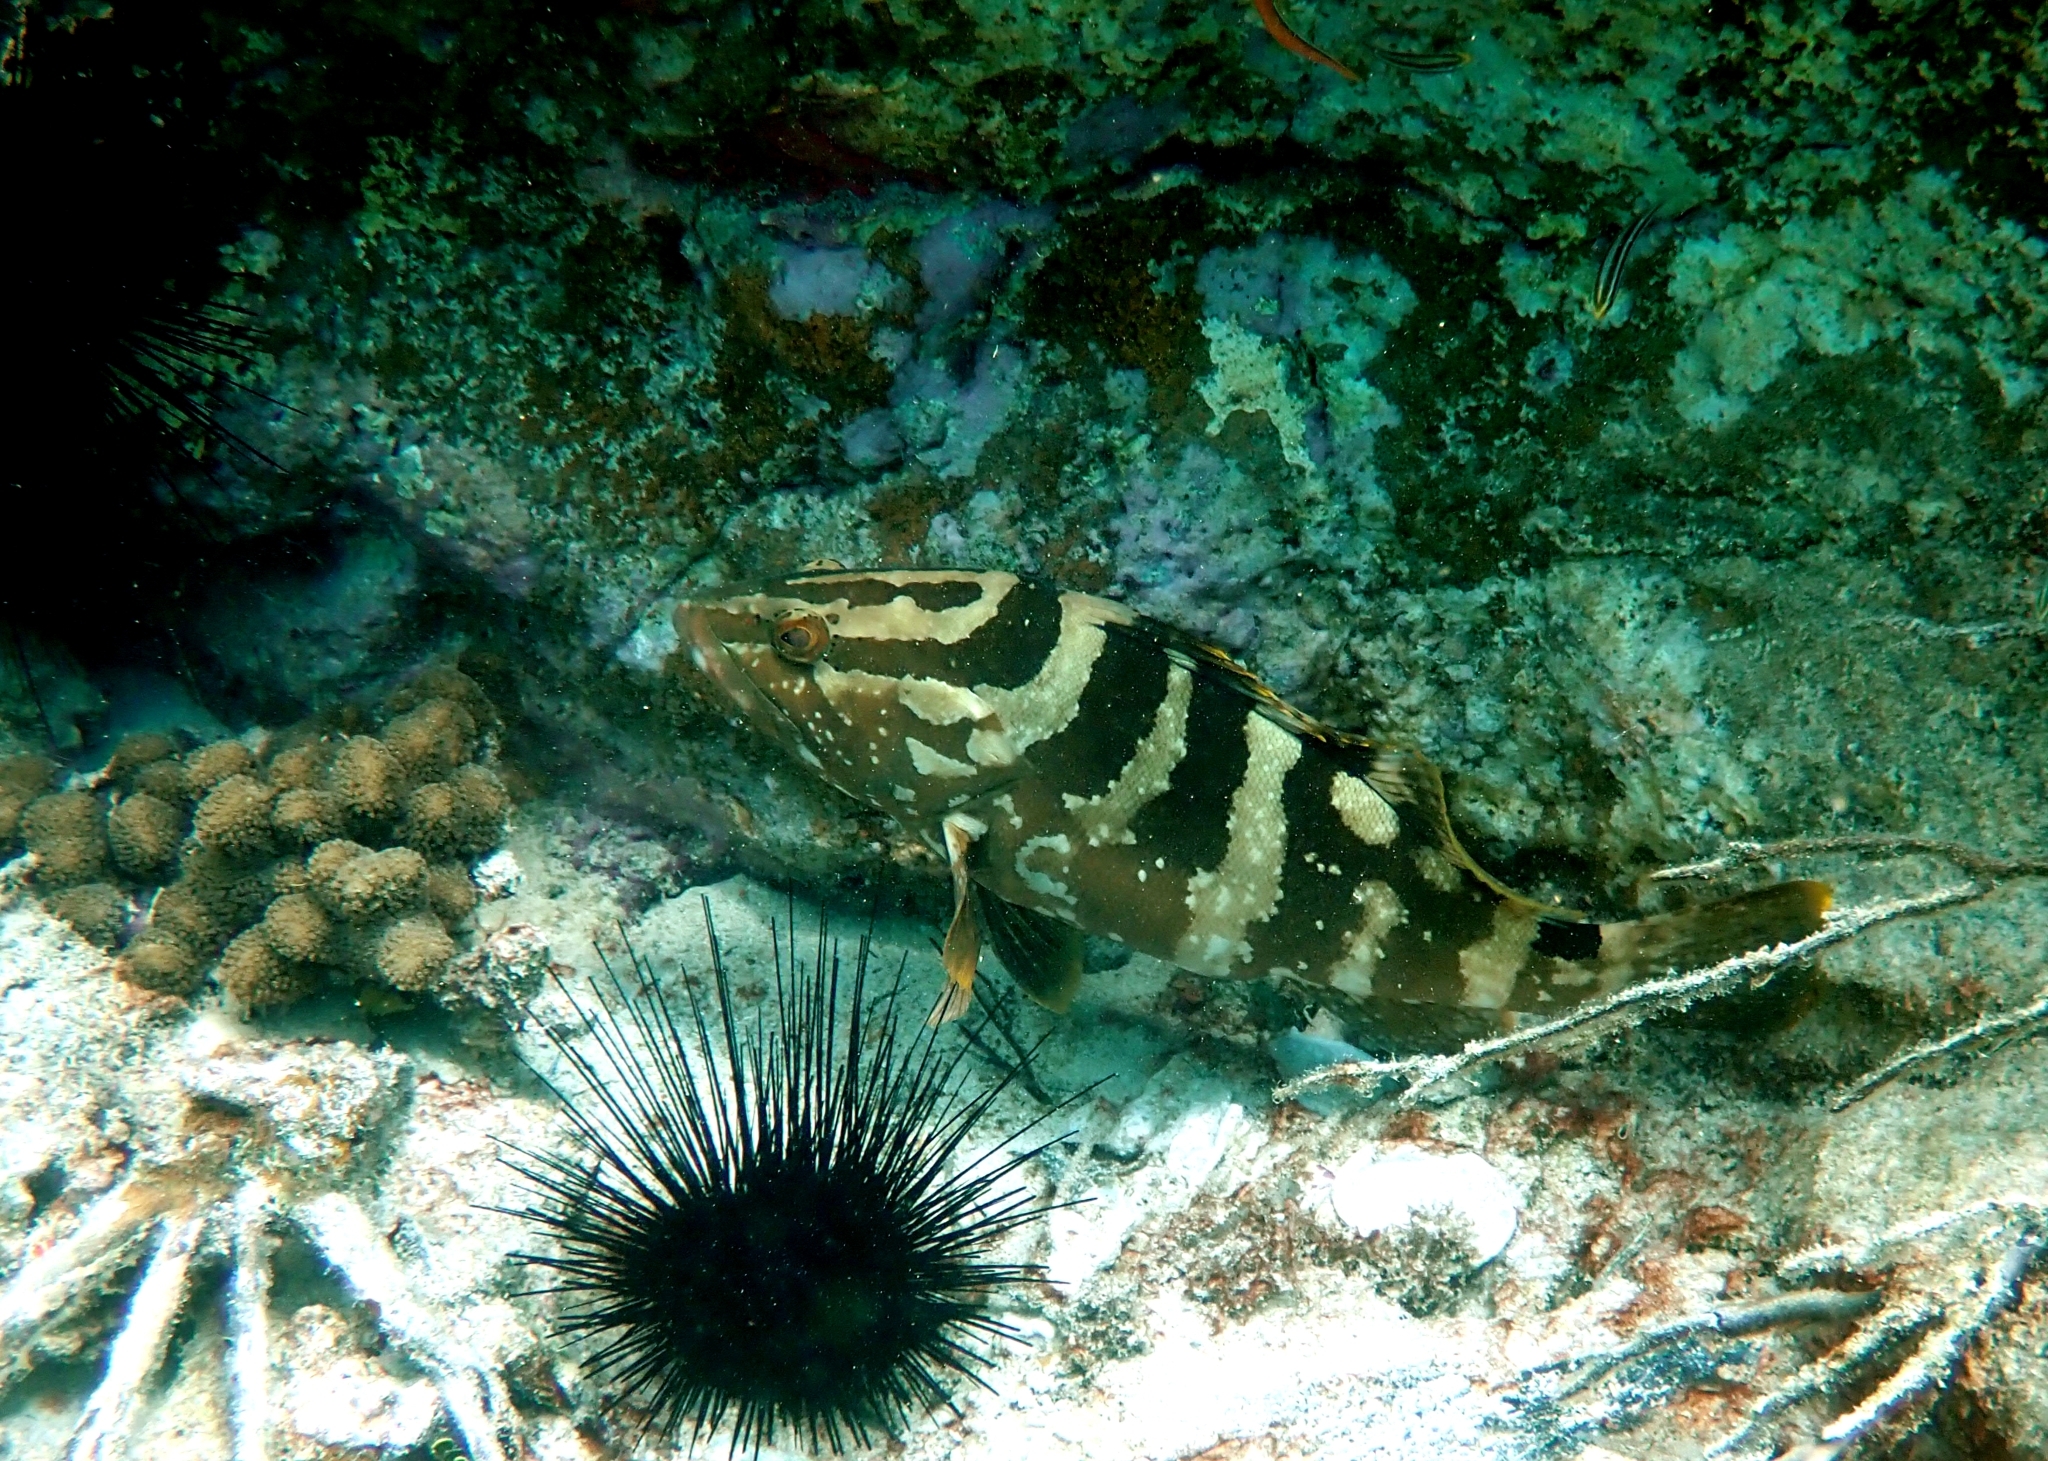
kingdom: Animalia
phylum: Chordata
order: Perciformes
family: Serranidae
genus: Epinephelus
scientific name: Epinephelus striatus
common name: Nassau grouper
